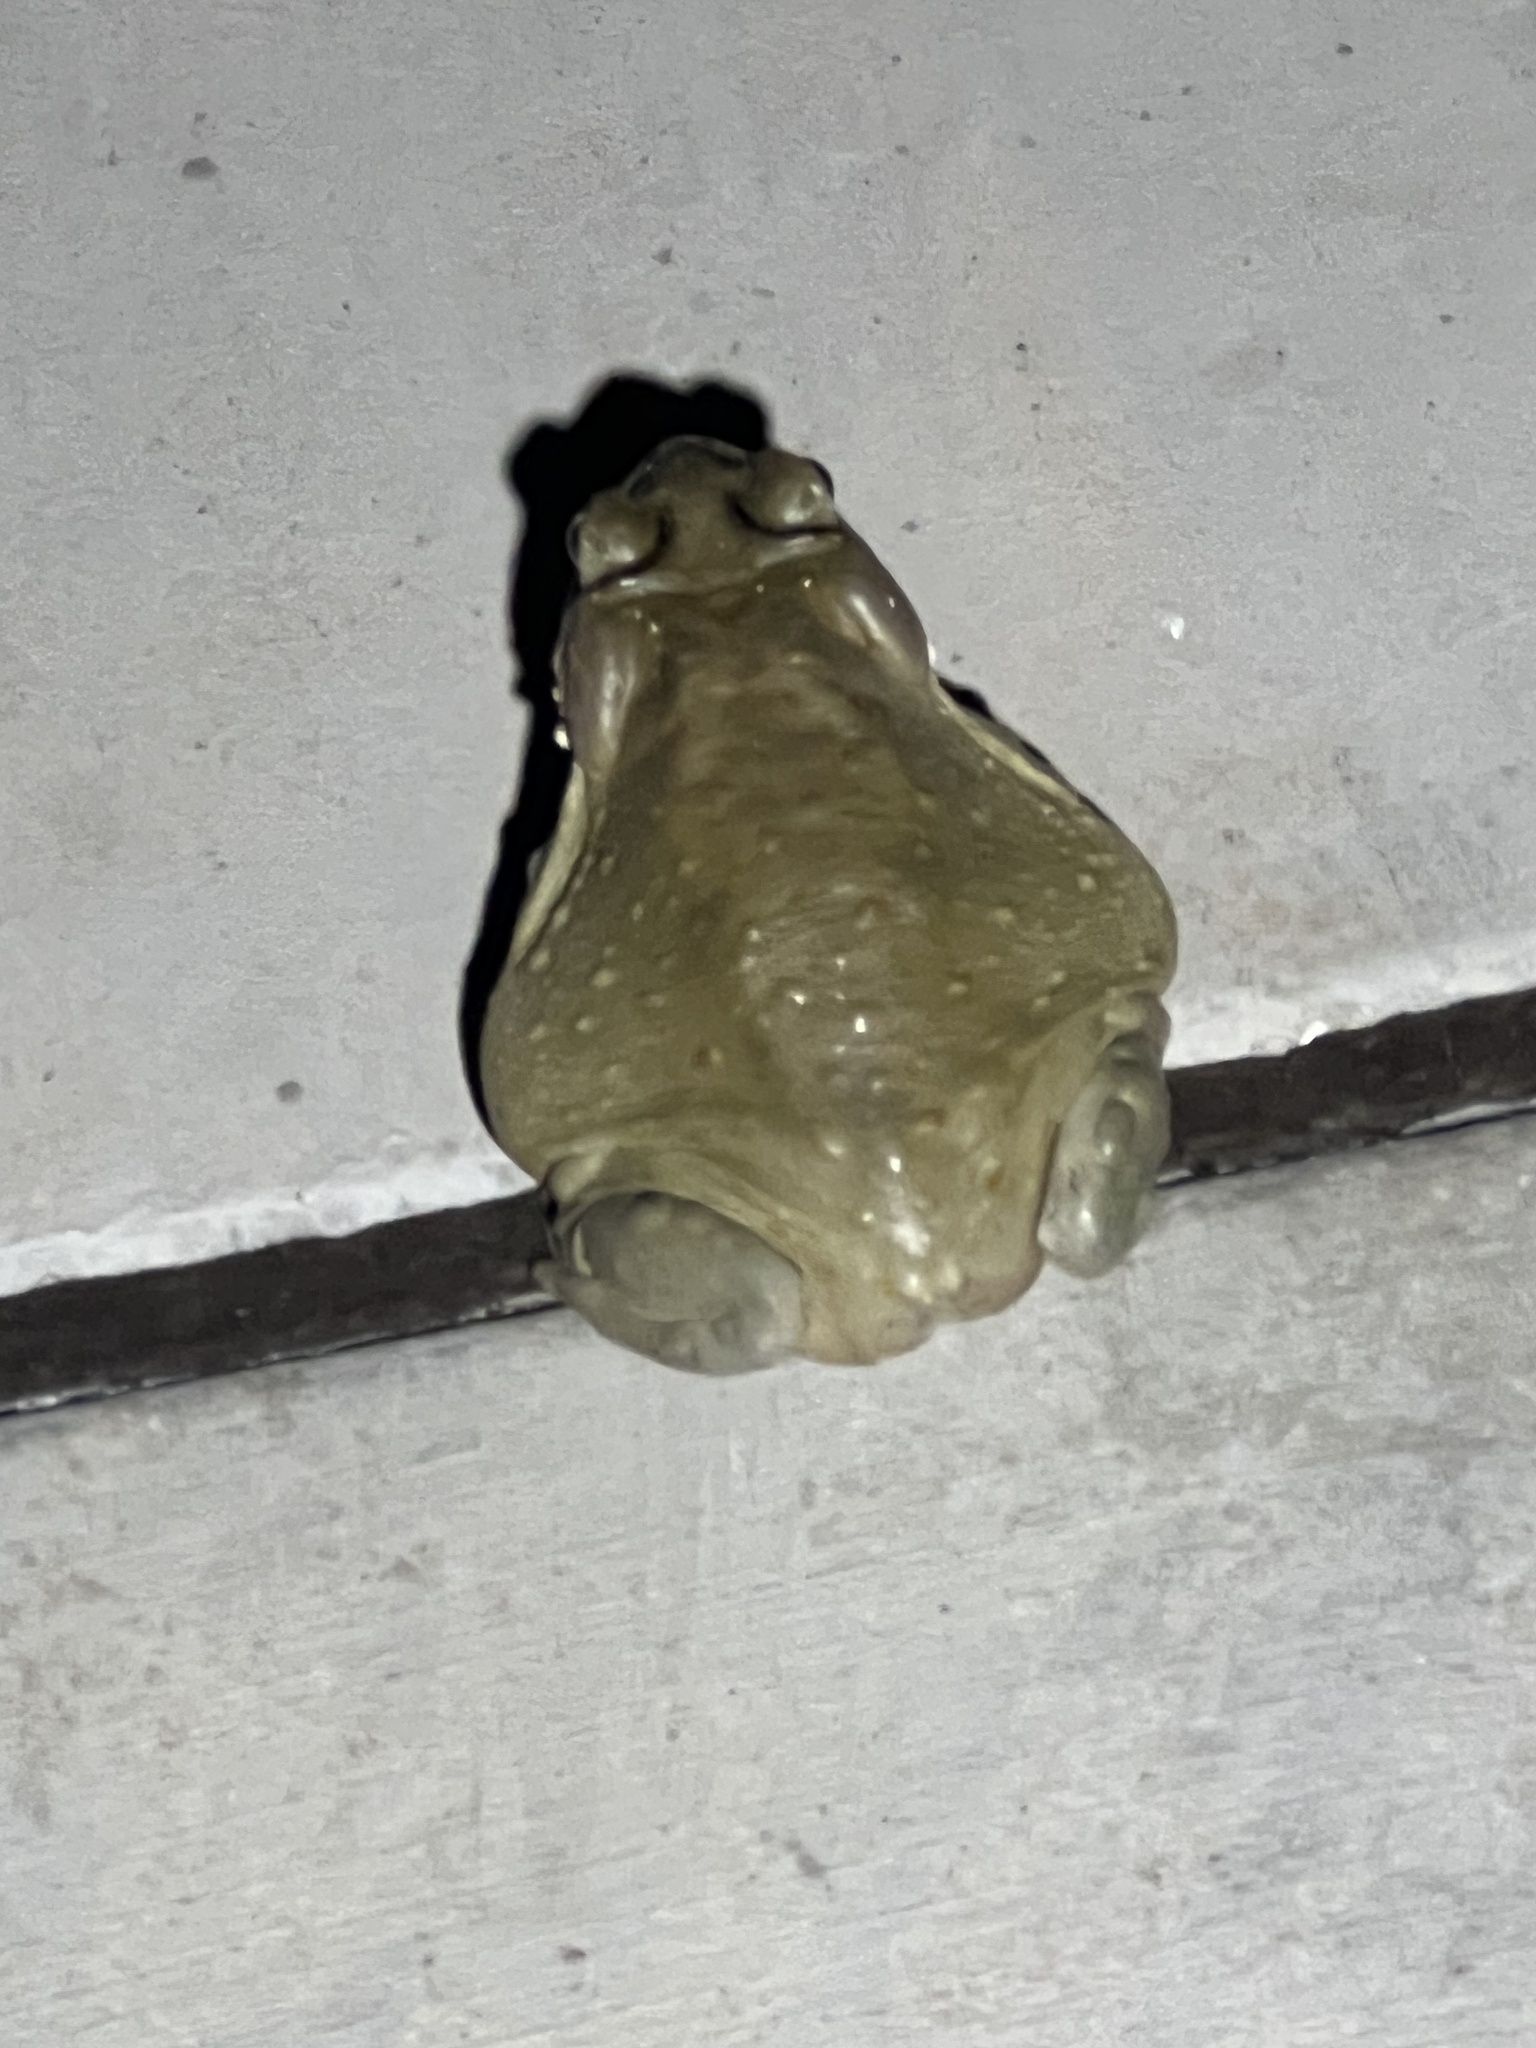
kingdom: Animalia
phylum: Chordata
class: Amphibia
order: Anura
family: Bufonidae
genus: Incilius
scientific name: Incilius alvarius
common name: Sonoran desert toad
